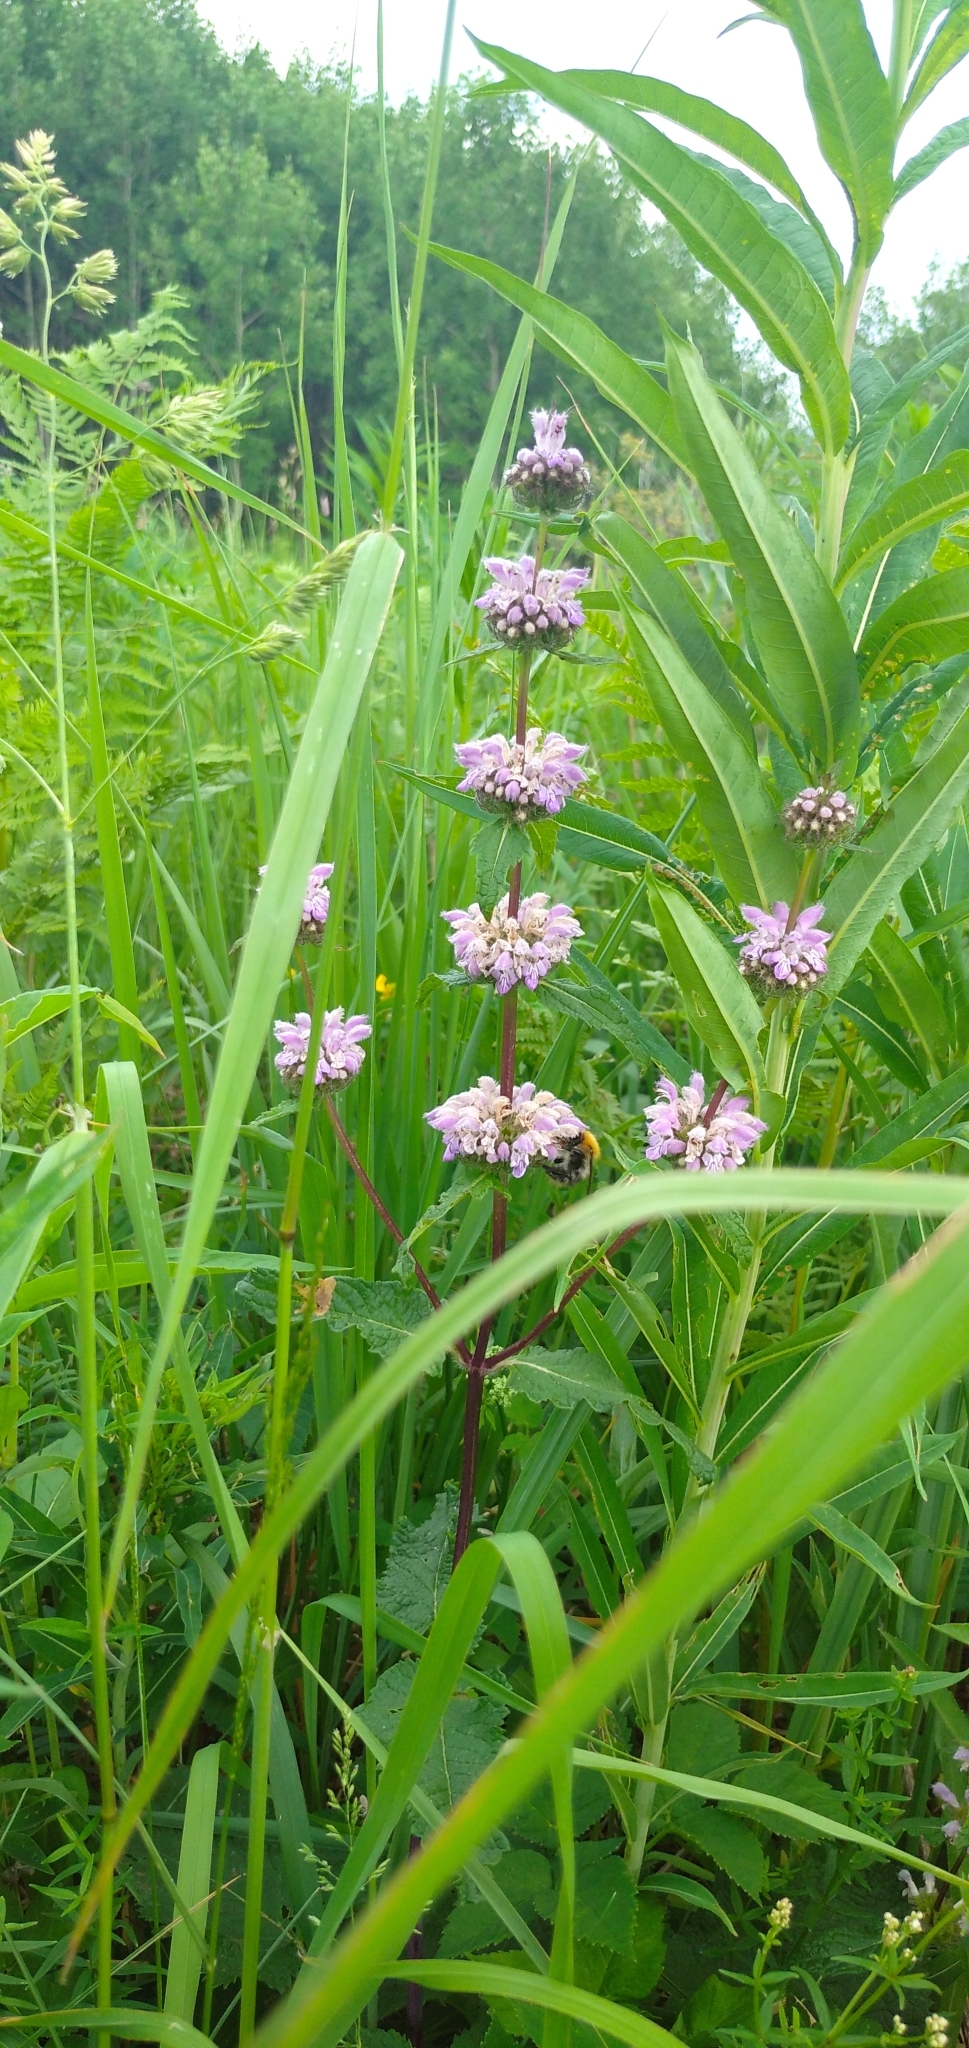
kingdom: Plantae
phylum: Tracheophyta
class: Magnoliopsida
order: Lamiales
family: Lamiaceae
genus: Phlomoides
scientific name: Phlomoides tuberosa
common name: Tuberous jerusalem sage
